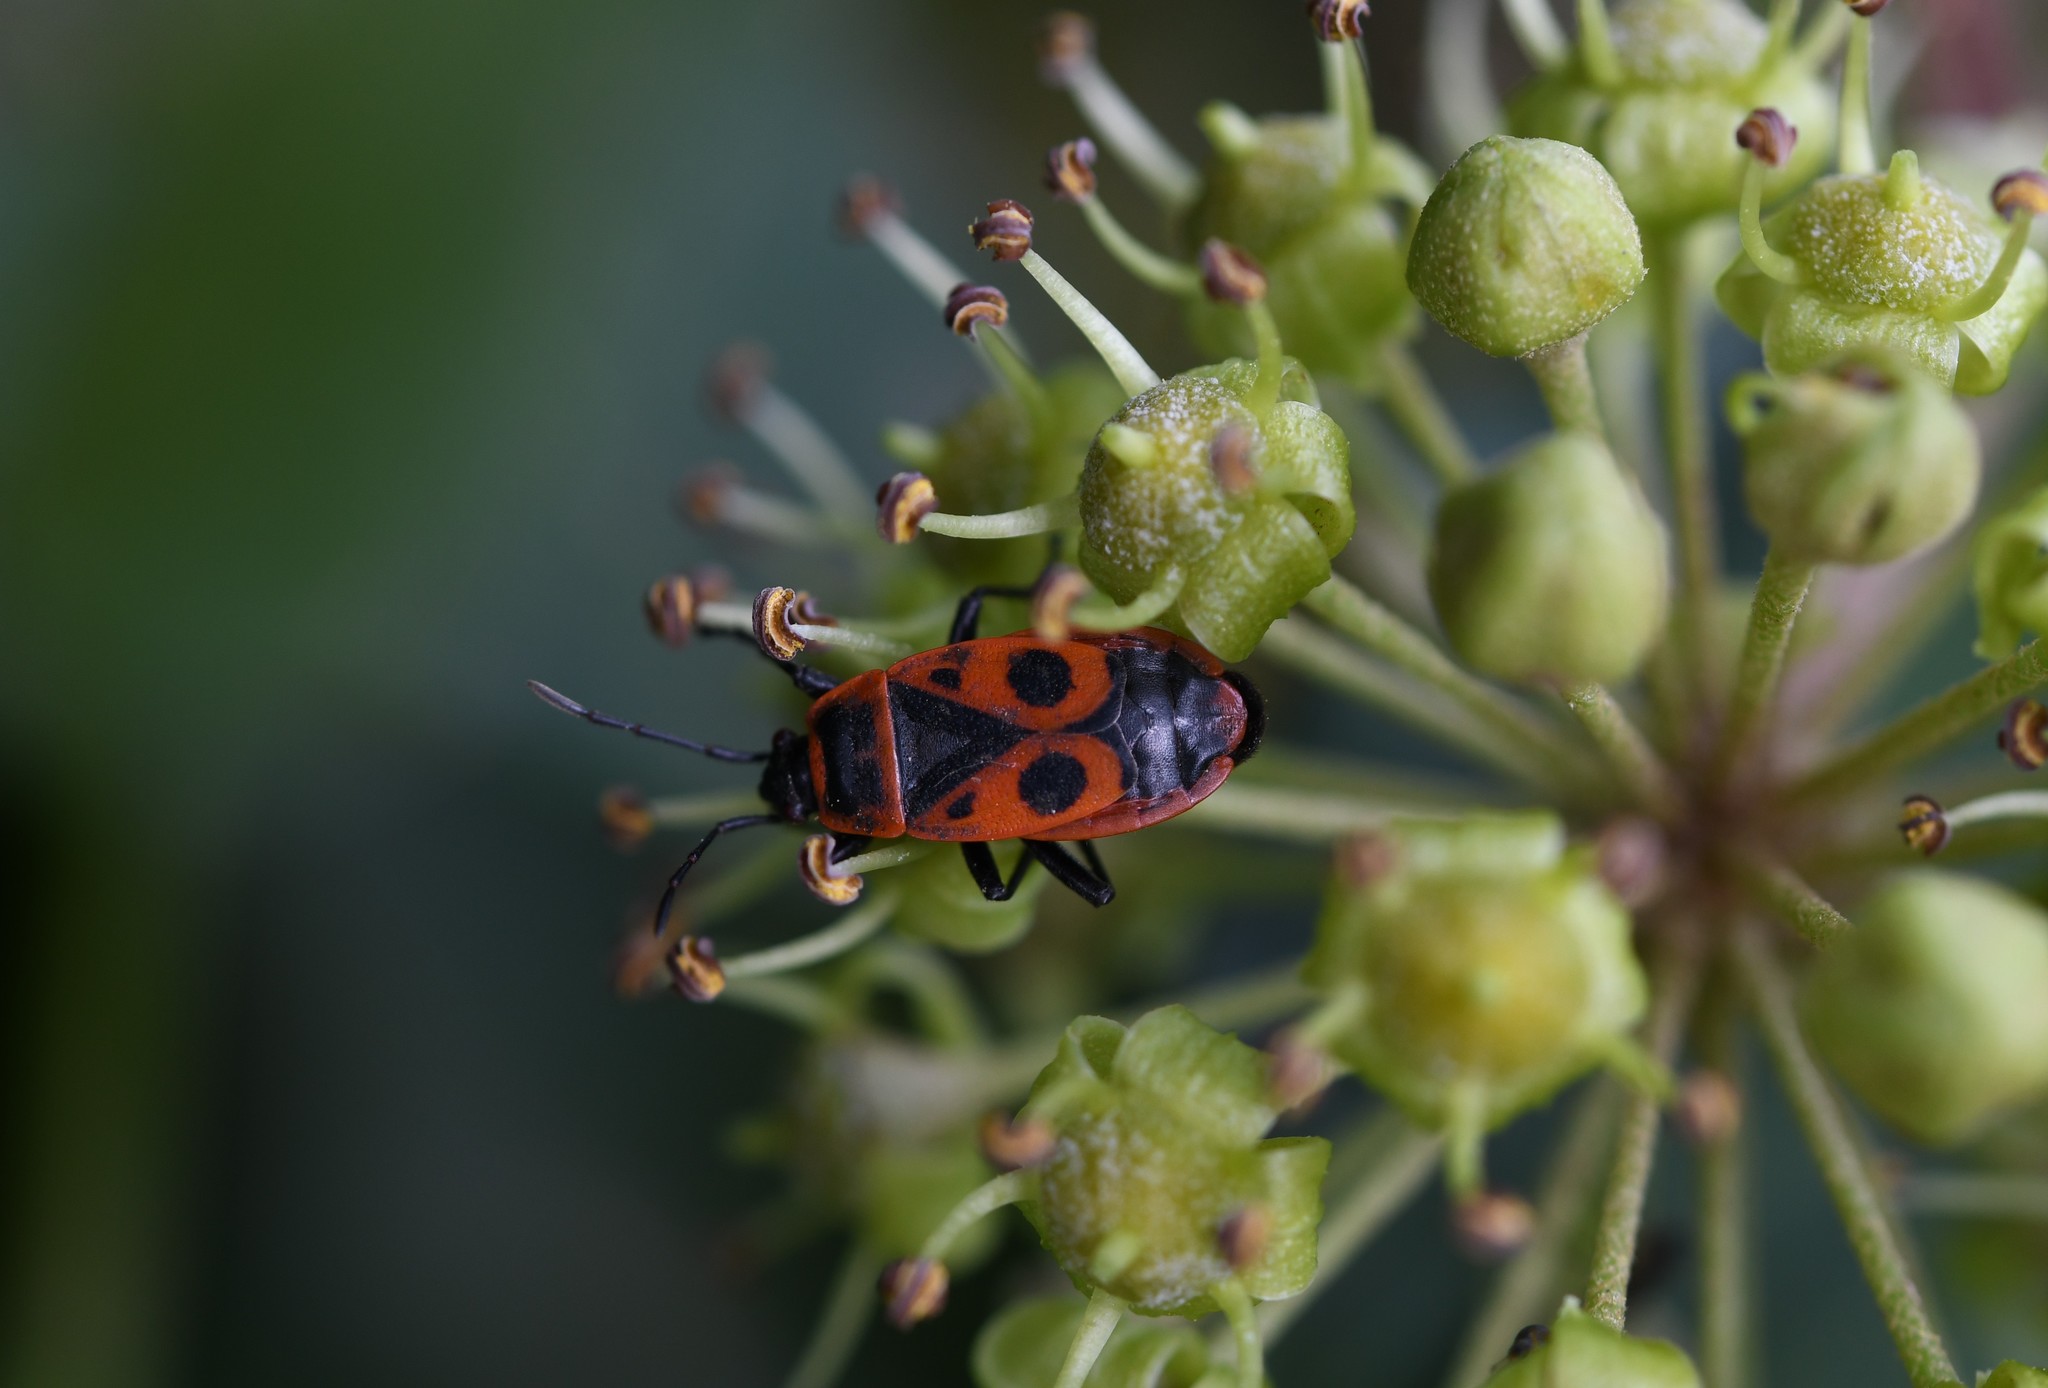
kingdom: Animalia
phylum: Arthropoda
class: Insecta
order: Hemiptera
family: Pyrrhocoridae
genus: Pyrrhocoris
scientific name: Pyrrhocoris apterus
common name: Firebug
